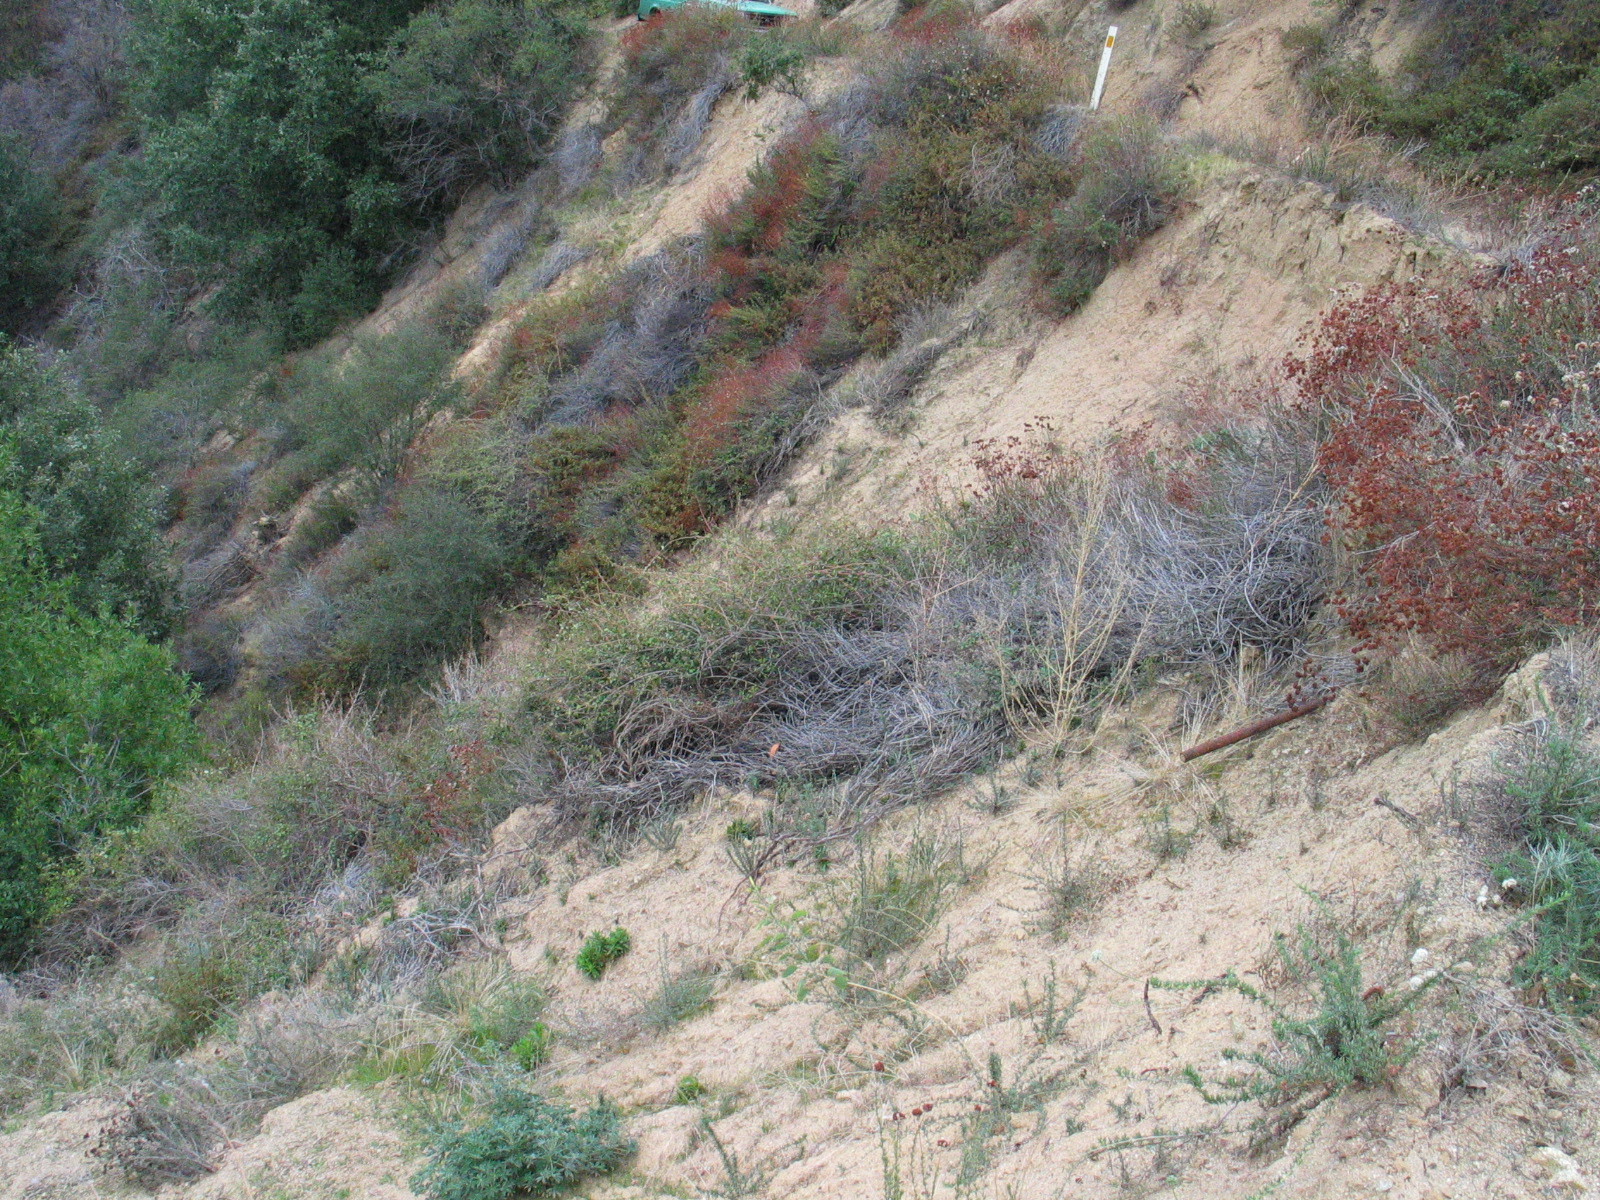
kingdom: Plantae
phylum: Tracheophyta
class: Magnoliopsida
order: Caryophyllales
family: Polygonaceae
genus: Eriogonum
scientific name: Eriogonum fasciculatum
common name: California wild buckwheat
